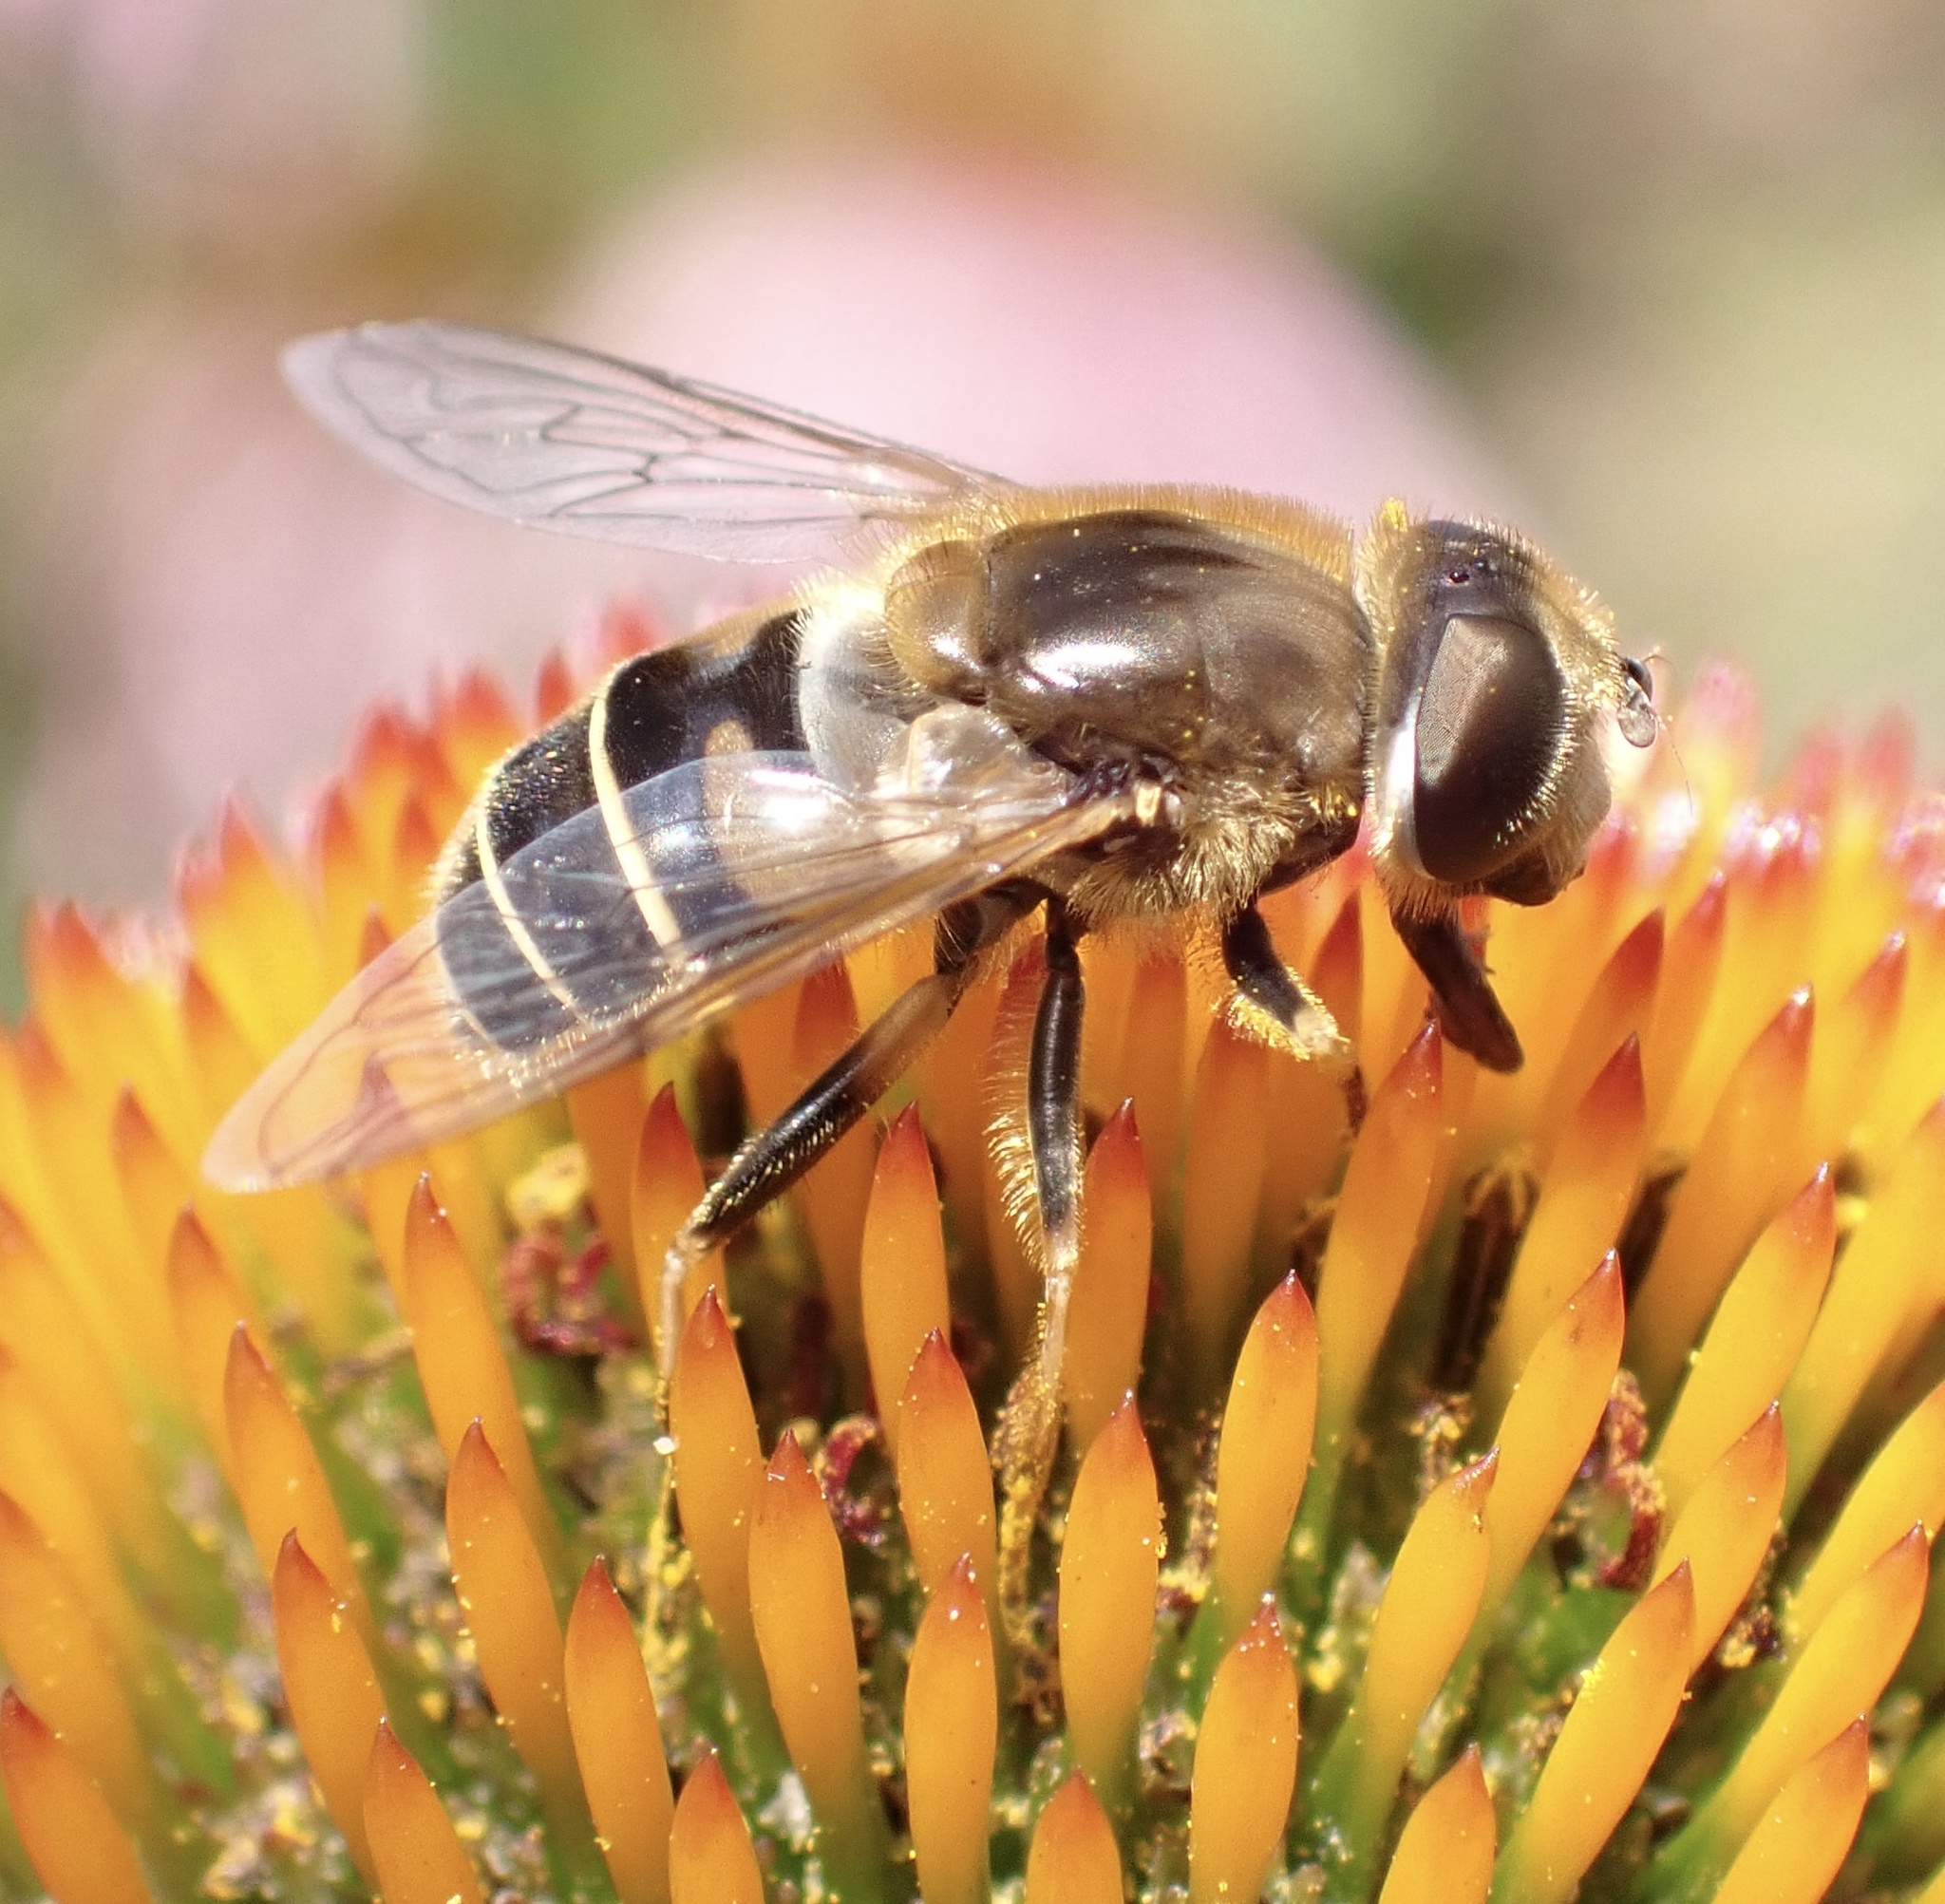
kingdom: Animalia
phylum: Arthropoda
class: Insecta
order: Diptera
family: Syrphidae
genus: Eristalis
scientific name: Eristalis nemorum
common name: Orange-spined drone fly
